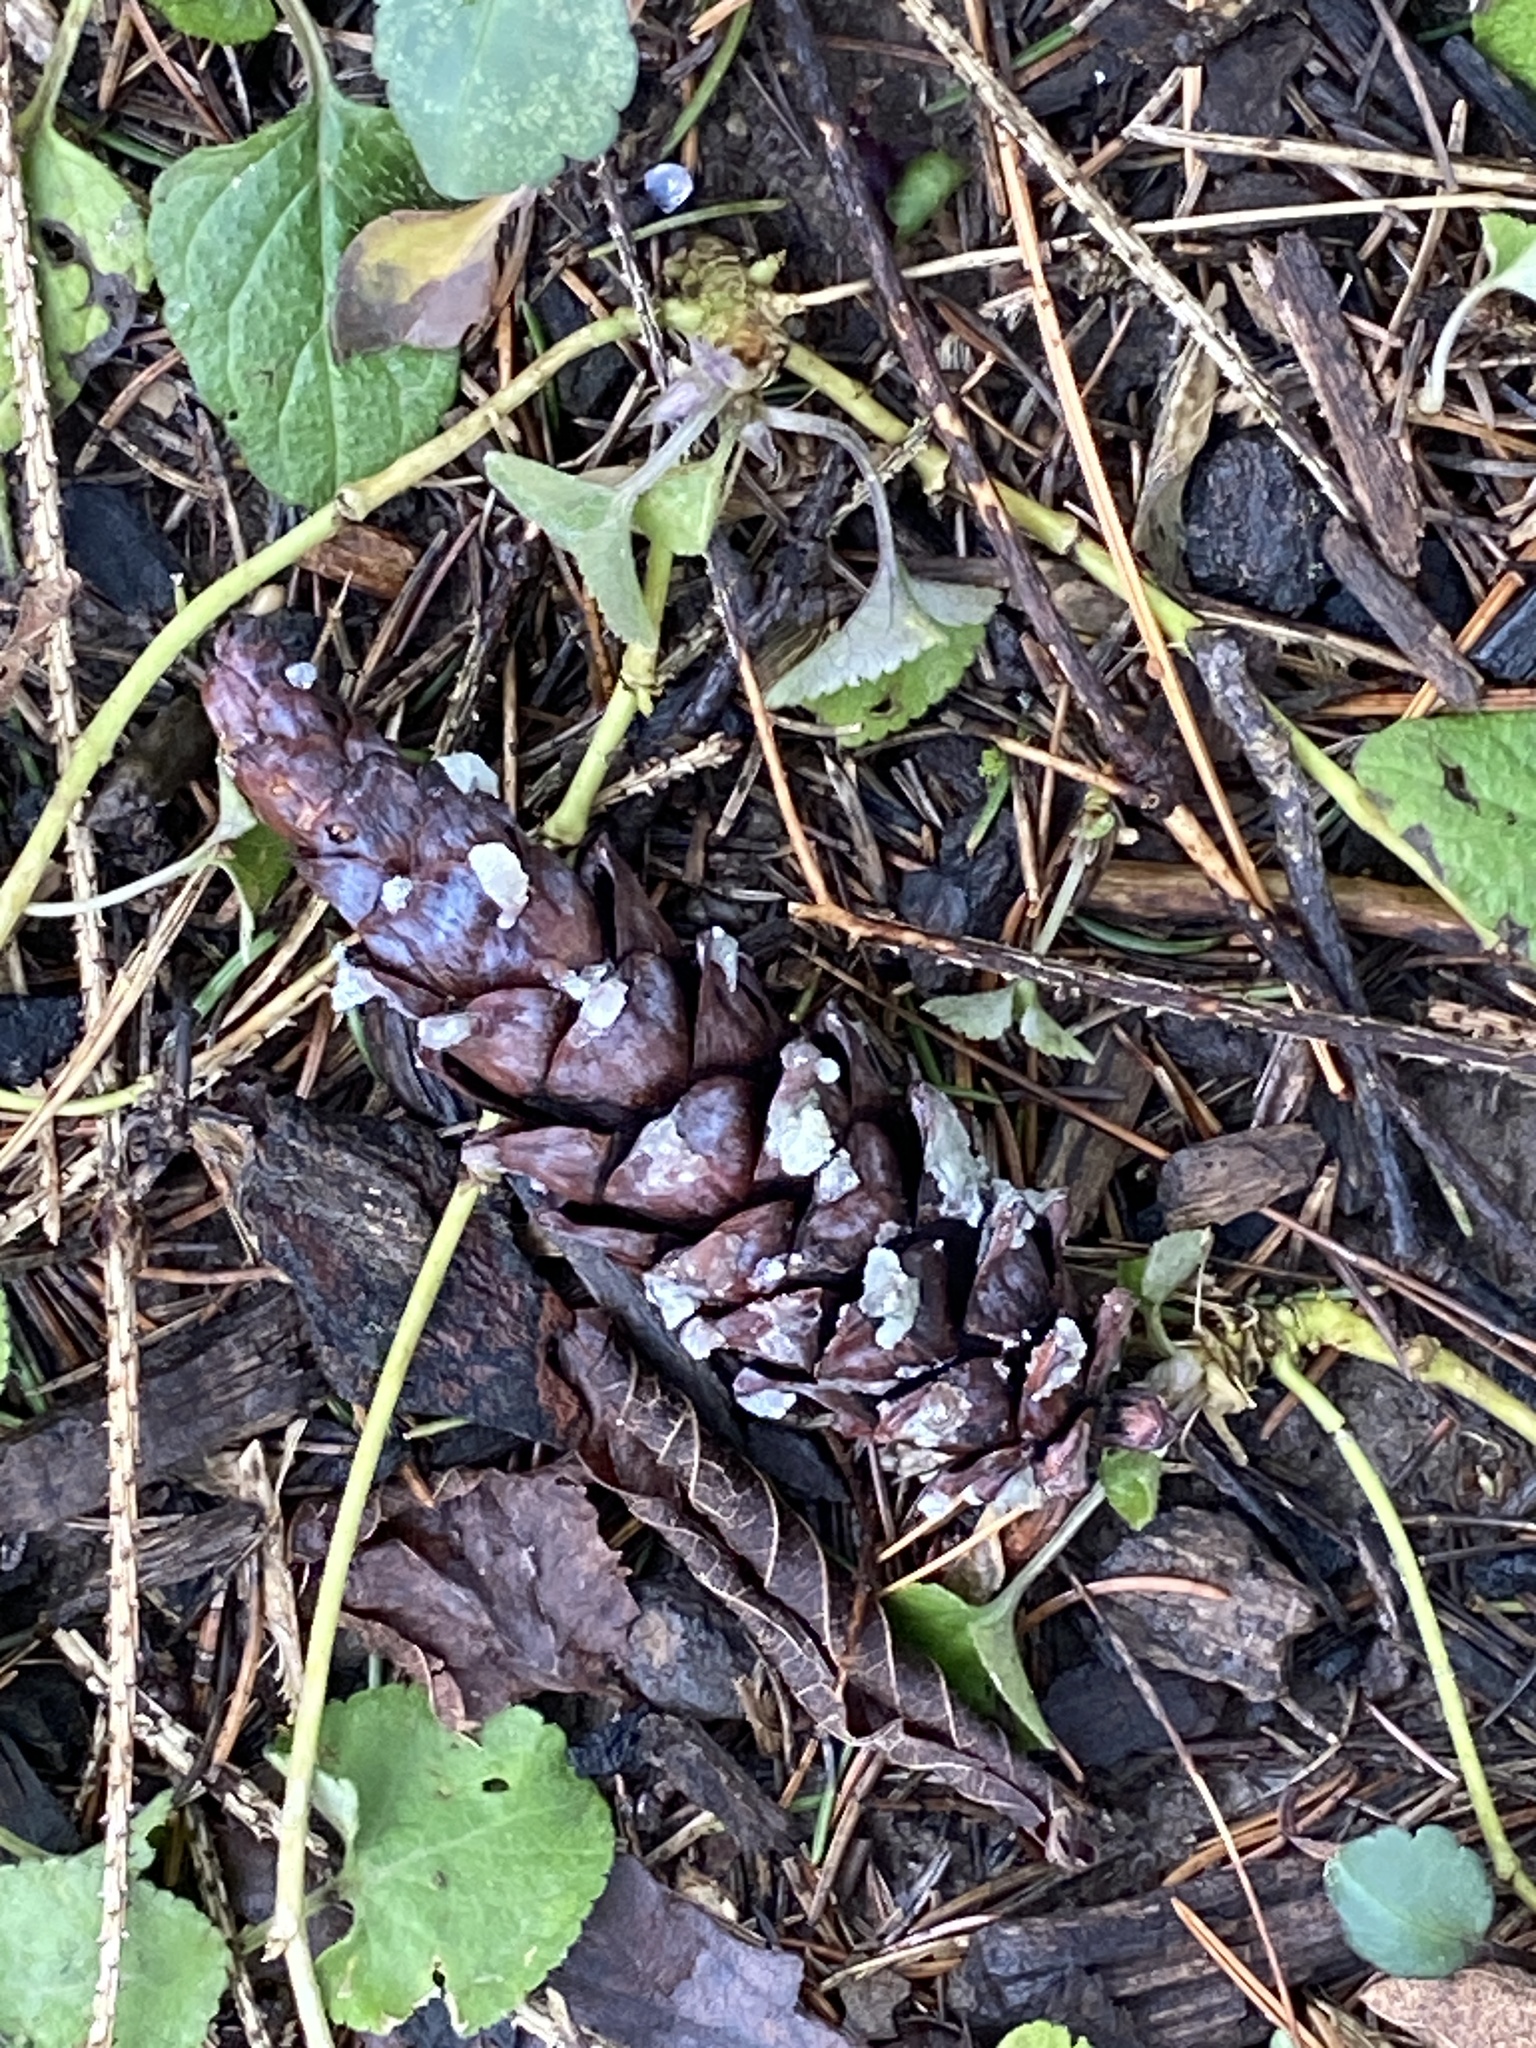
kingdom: Plantae
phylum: Tracheophyta
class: Pinopsida
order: Pinales
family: Pinaceae
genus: Pinus
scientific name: Pinus strobus
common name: Weymouth pine
